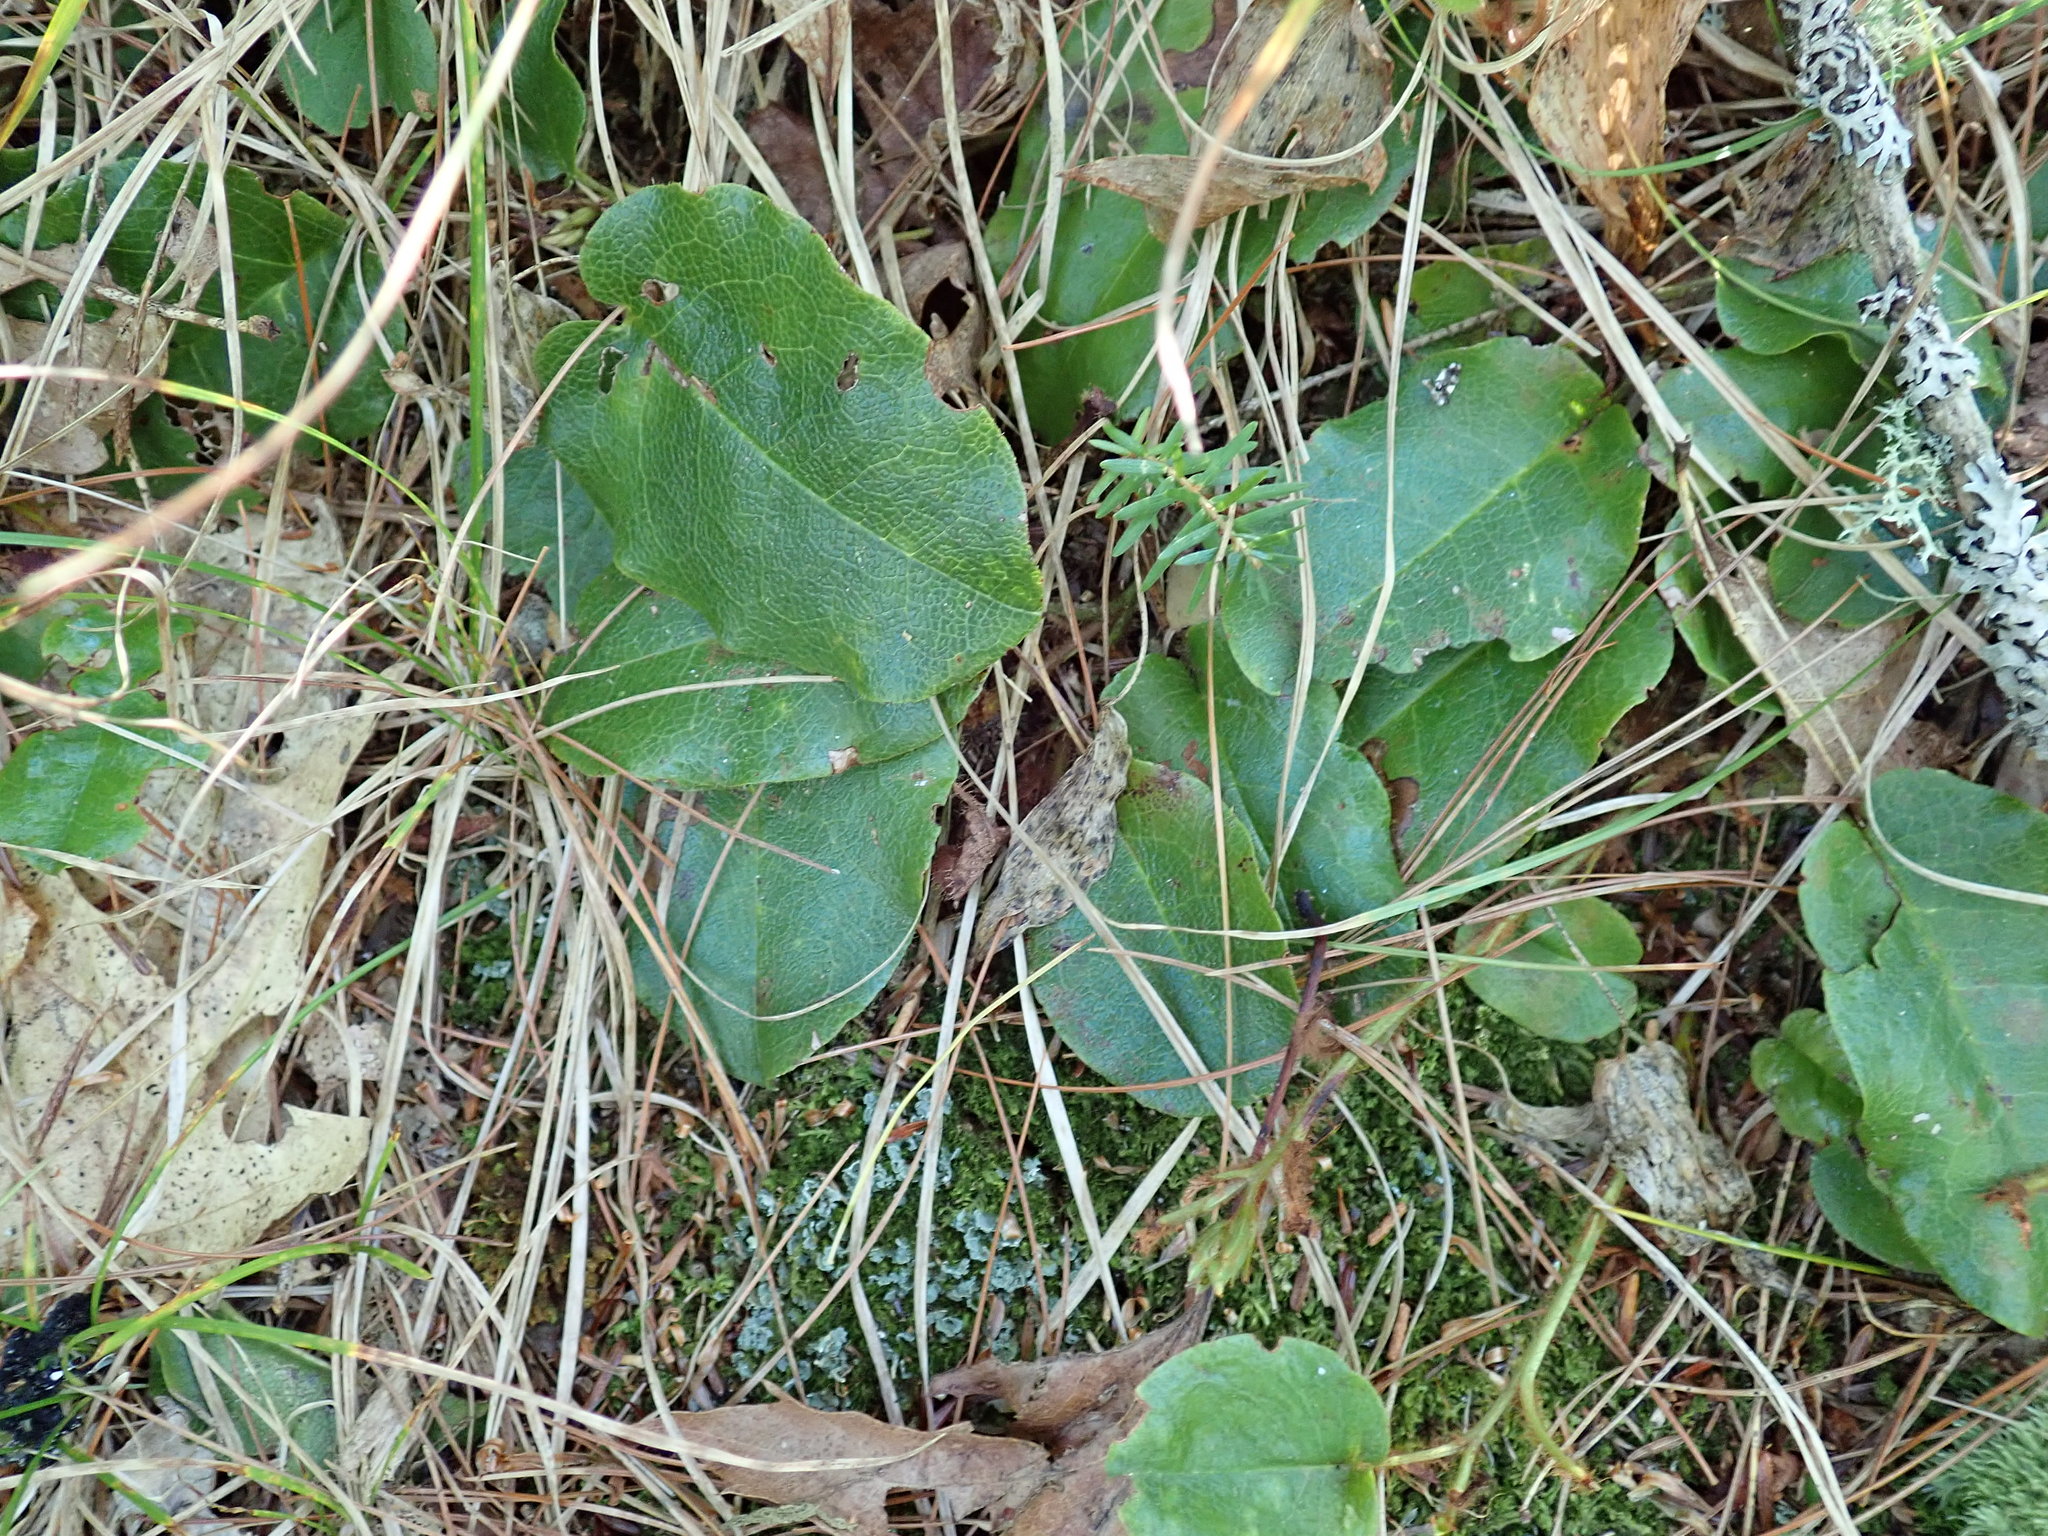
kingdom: Plantae
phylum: Tracheophyta
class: Magnoliopsida
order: Ericales
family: Ericaceae
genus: Epigaea
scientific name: Epigaea repens
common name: Gravelroot
